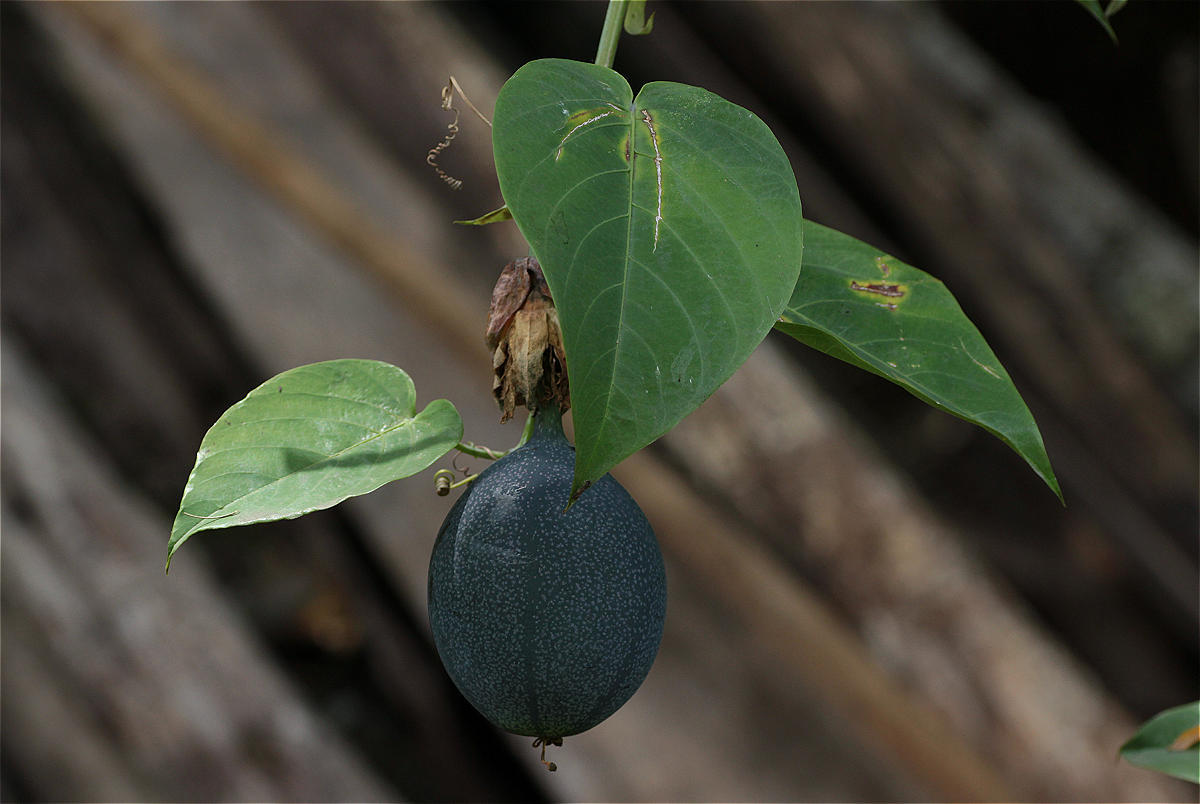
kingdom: Plantae
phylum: Tracheophyta
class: Magnoliopsida
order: Malpighiales
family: Passifloraceae
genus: Passiflora
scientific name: Passiflora ligularis
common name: Sweet granadilla
